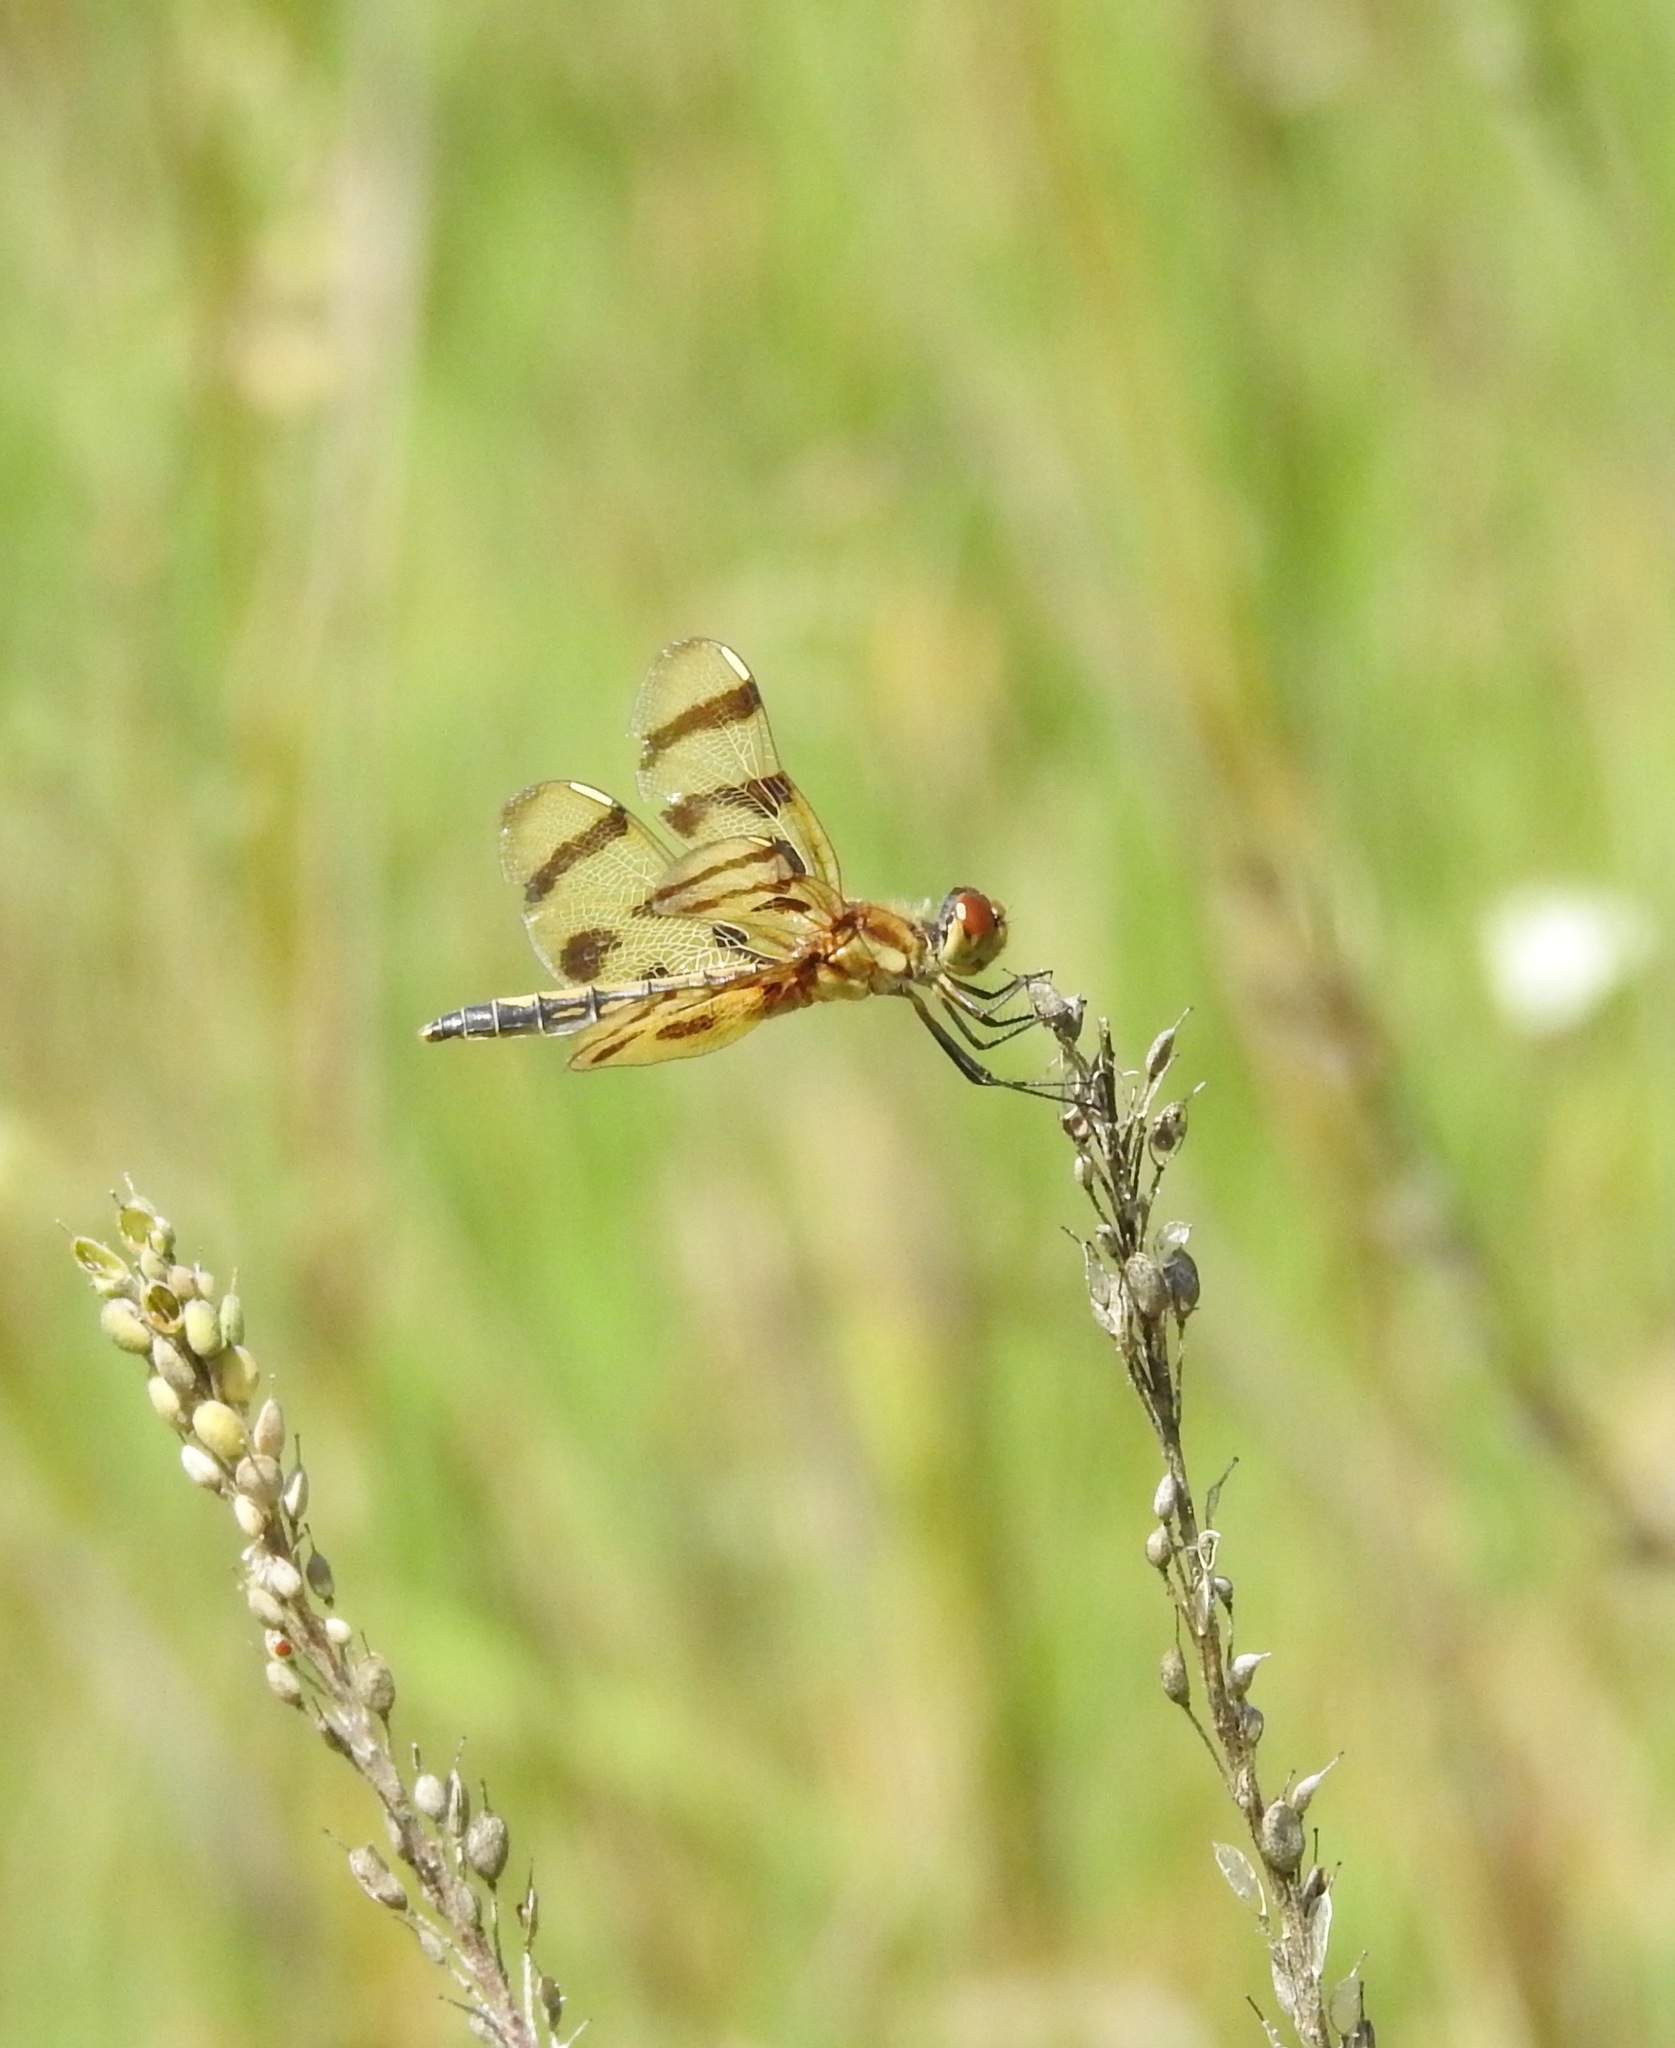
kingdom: Animalia
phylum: Arthropoda
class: Insecta
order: Odonata
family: Libellulidae
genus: Celithemis
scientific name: Celithemis eponina
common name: Halloween pennant
